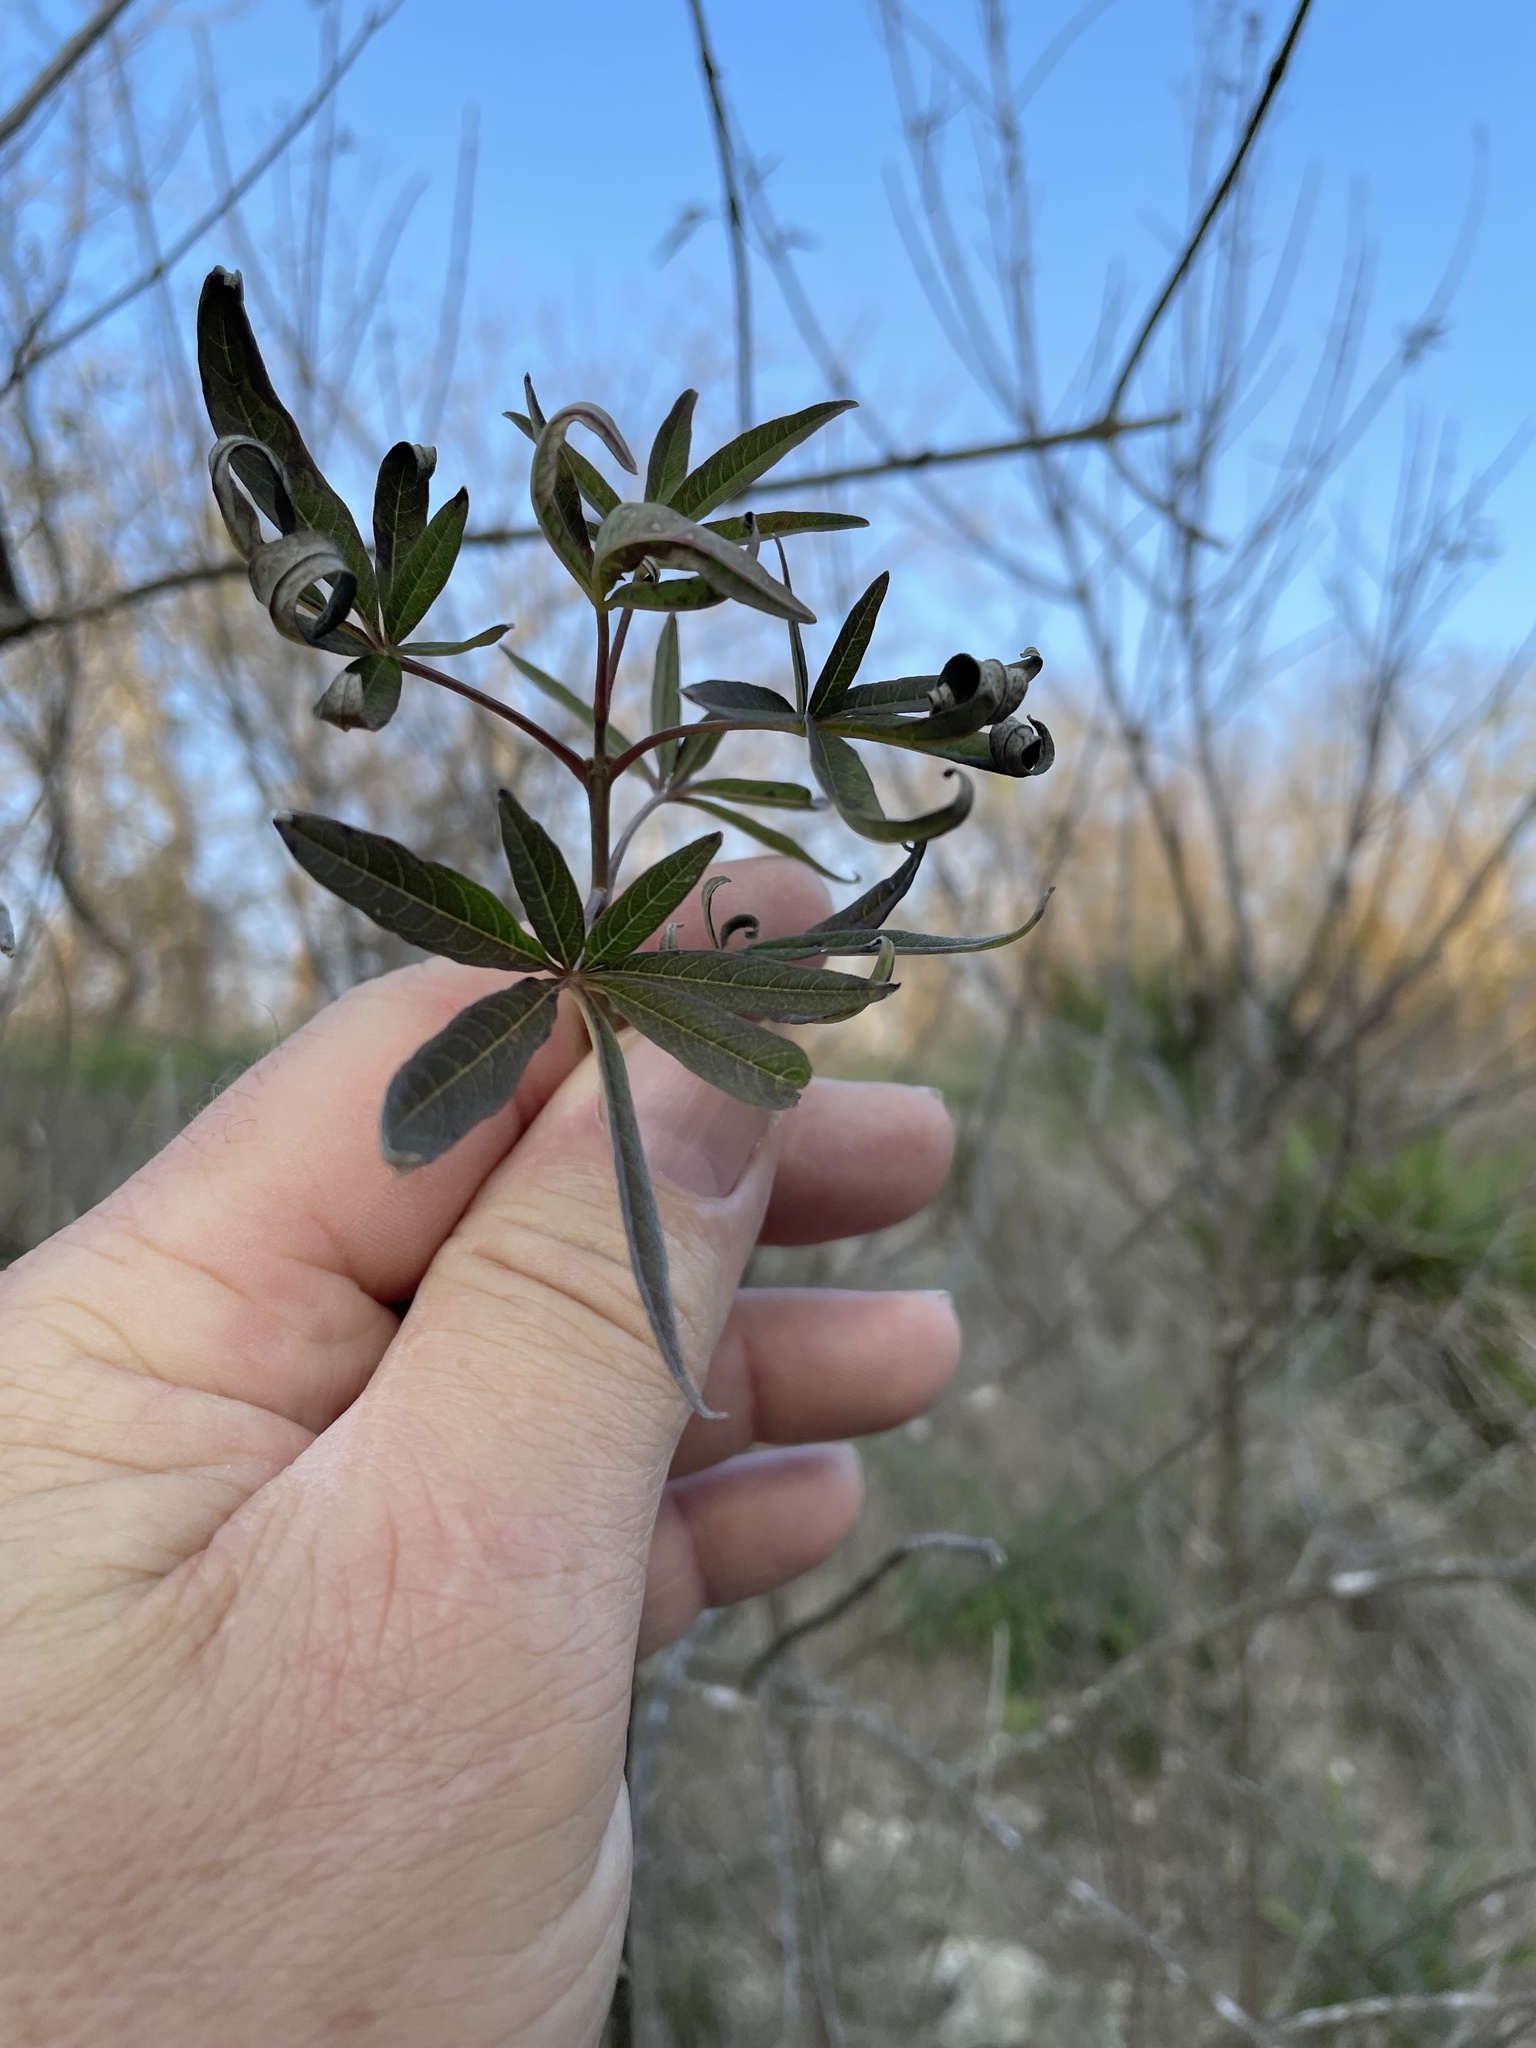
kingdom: Plantae
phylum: Tracheophyta
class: Magnoliopsida
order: Lamiales
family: Lamiaceae
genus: Vitex
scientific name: Vitex agnus-castus
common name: Chasteberry
